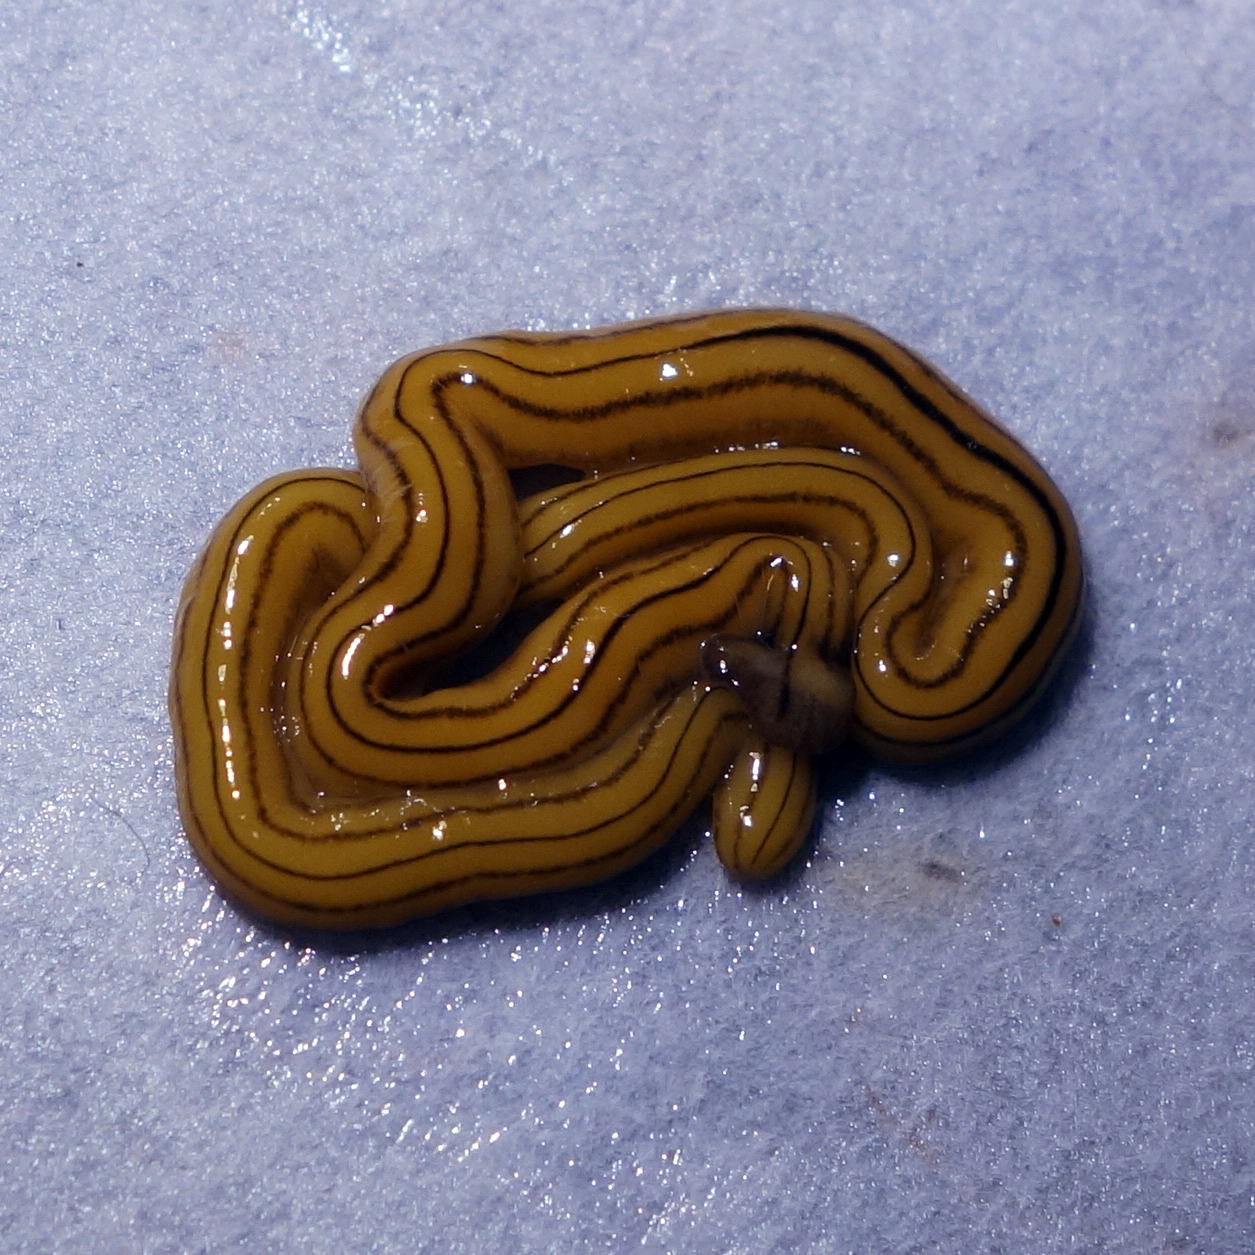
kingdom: Animalia
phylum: Platyhelminthes
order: Tricladida
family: Geoplanidae
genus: Diversibipalium
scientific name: Diversibipalium multilineatum
